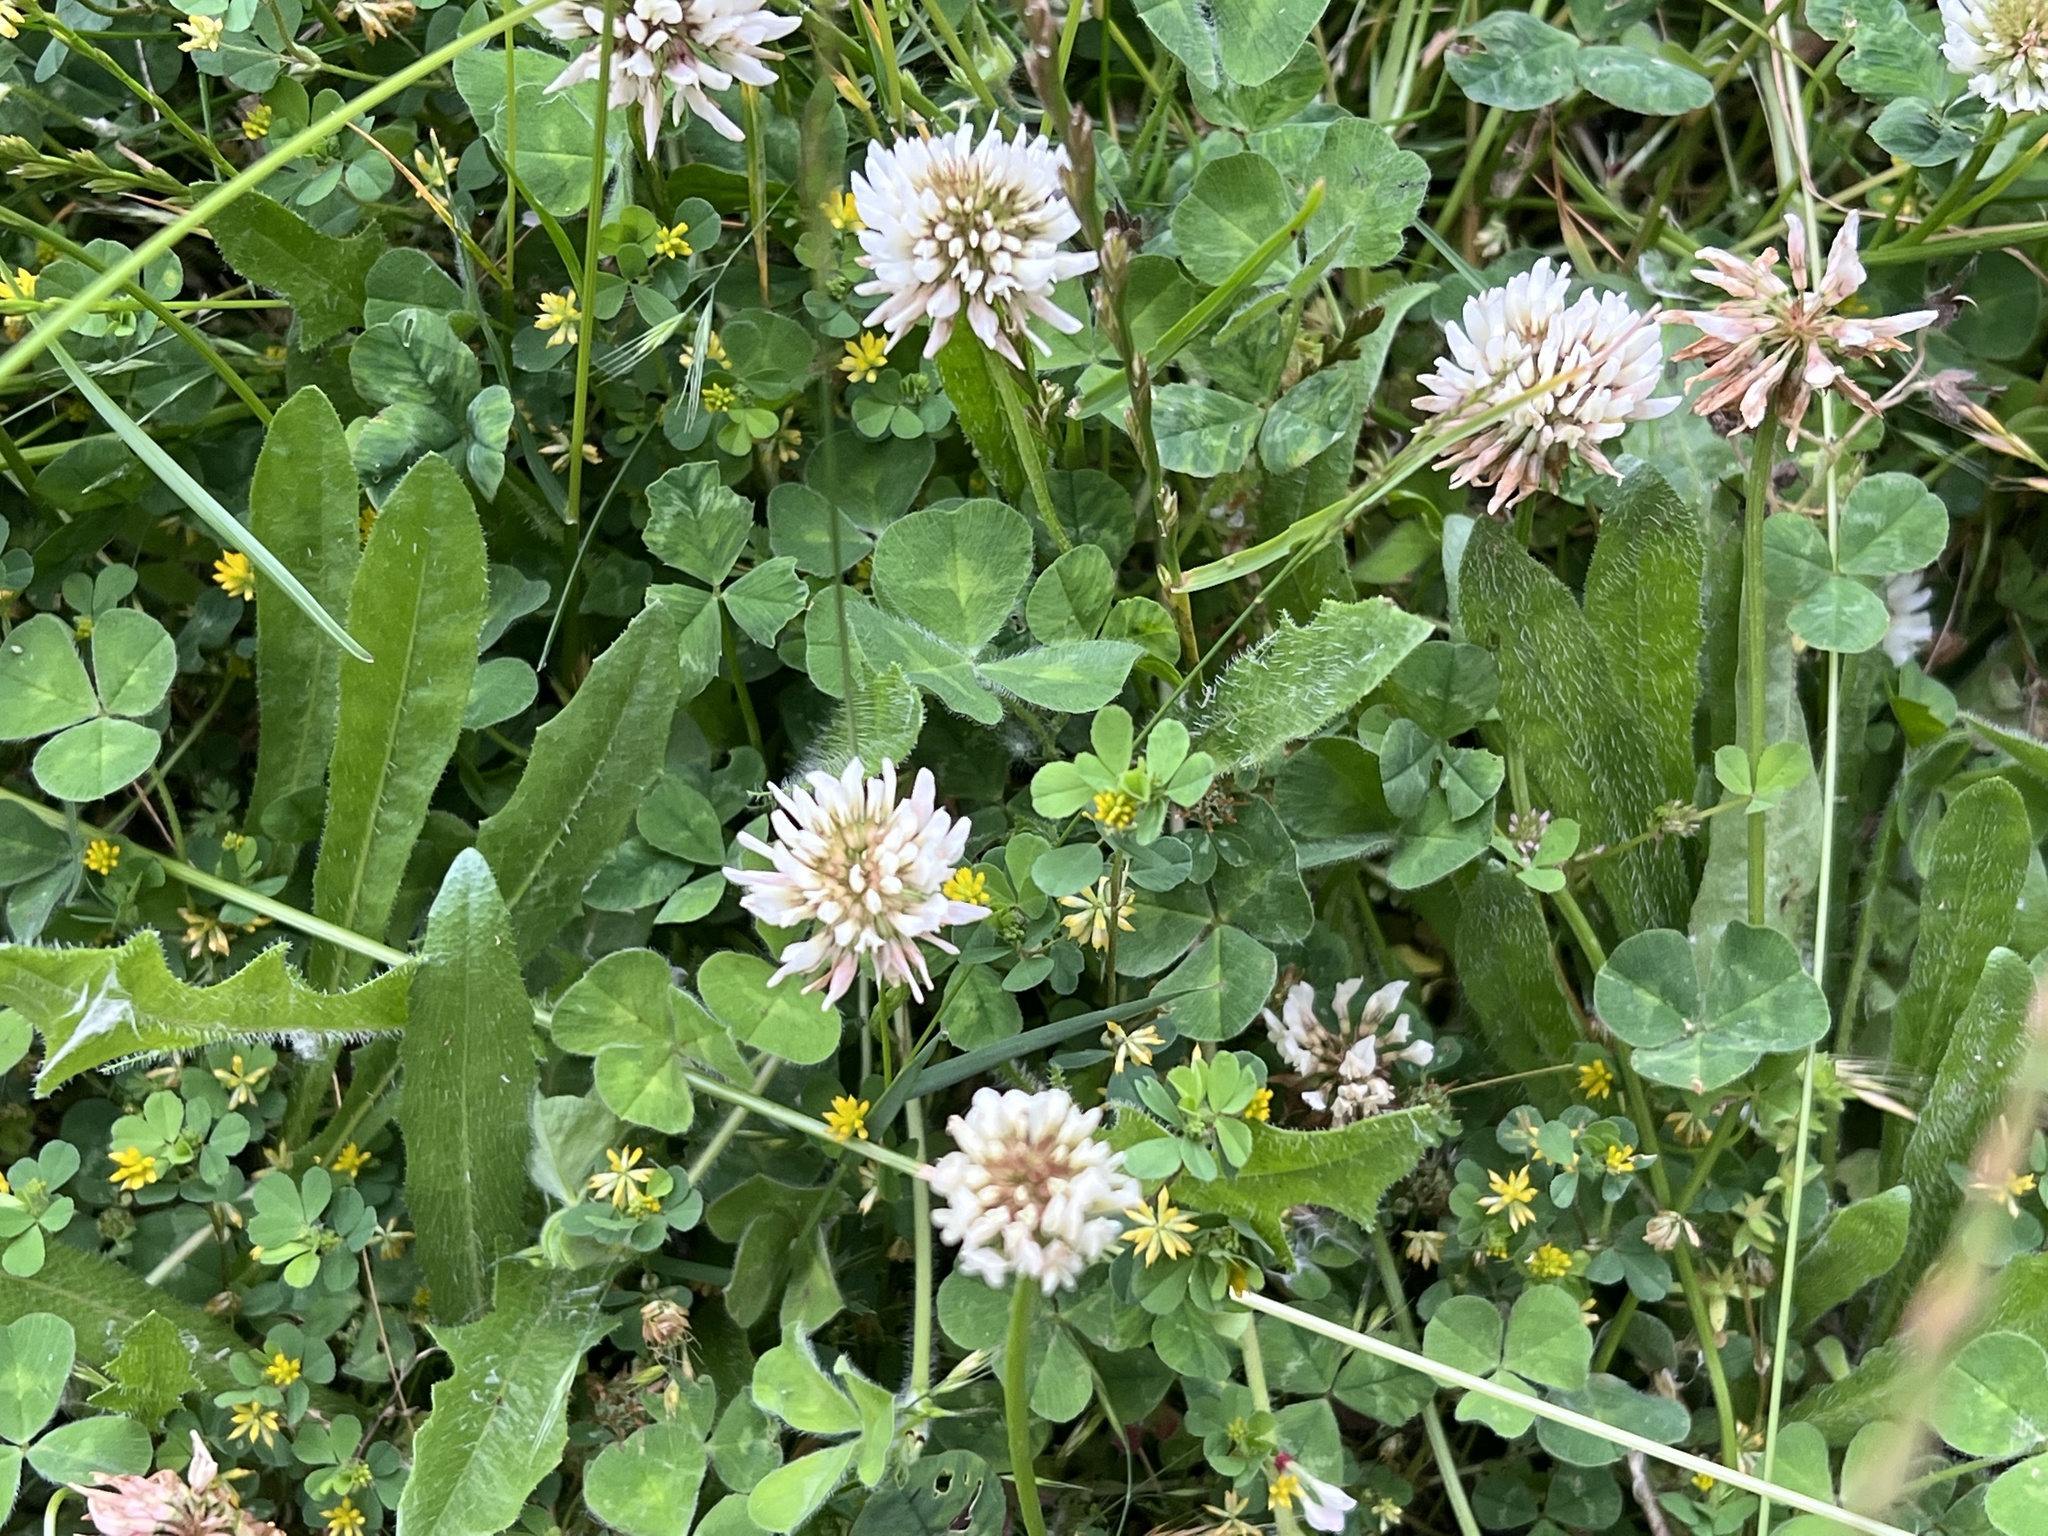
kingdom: Plantae
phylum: Tracheophyta
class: Magnoliopsida
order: Fabales
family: Fabaceae
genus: Trifolium
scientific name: Trifolium repens
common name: White clover
